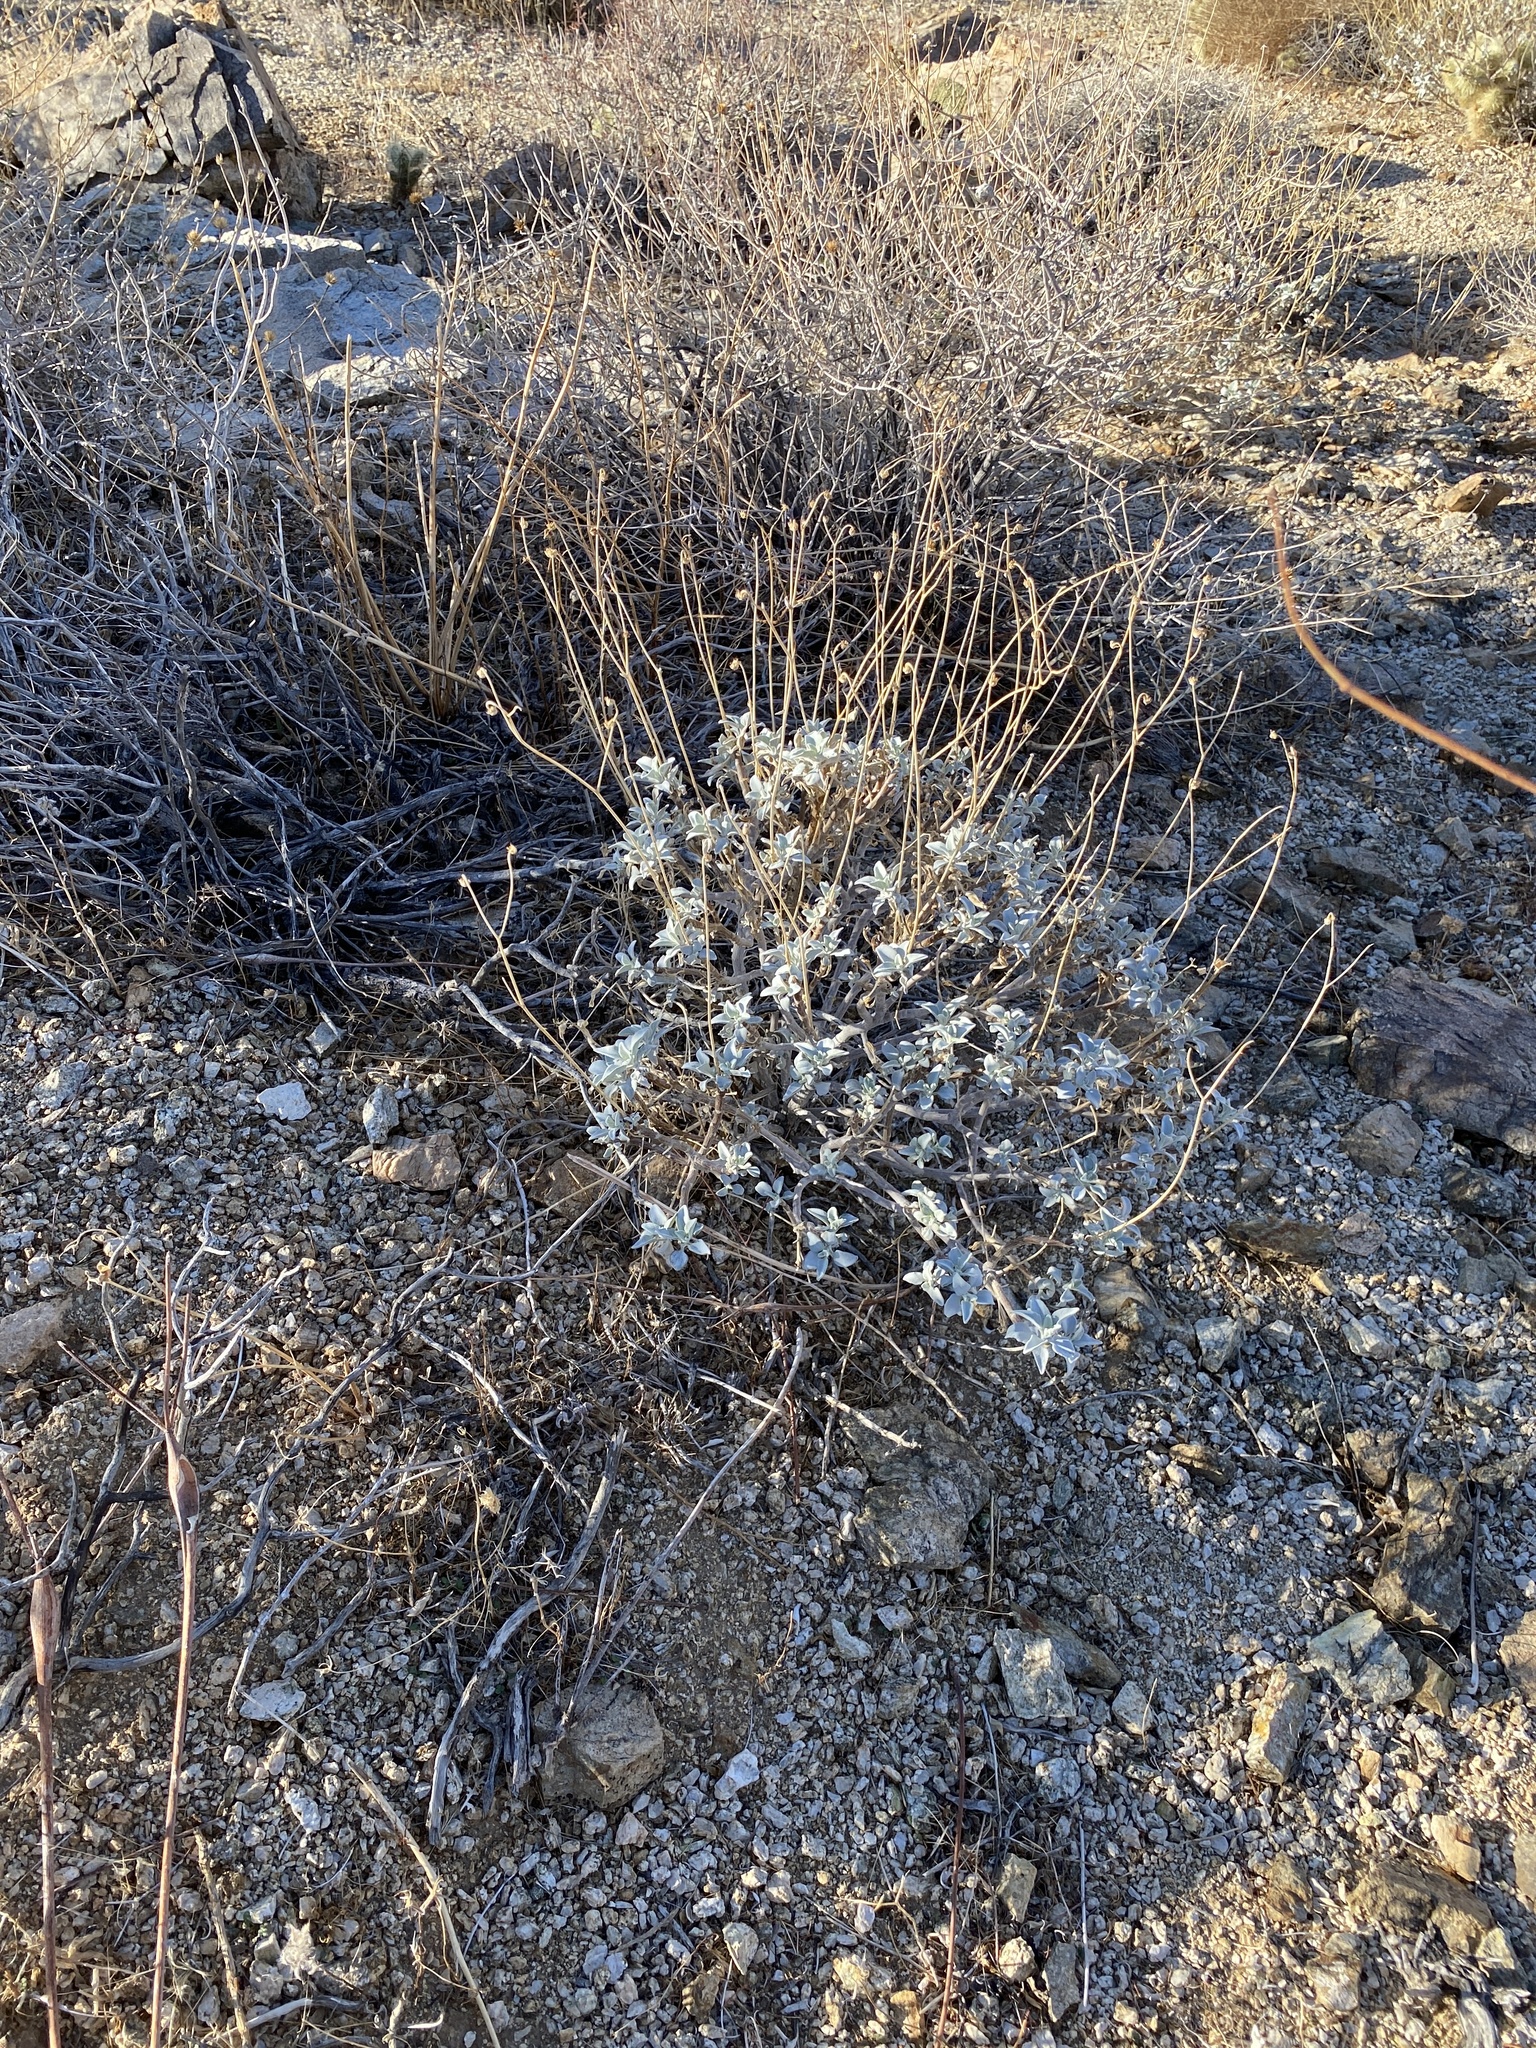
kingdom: Plantae
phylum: Tracheophyta
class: Magnoliopsida
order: Asterales
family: Asteraceae
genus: Encelia
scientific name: Encelia farinosa
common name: Brittlebush
